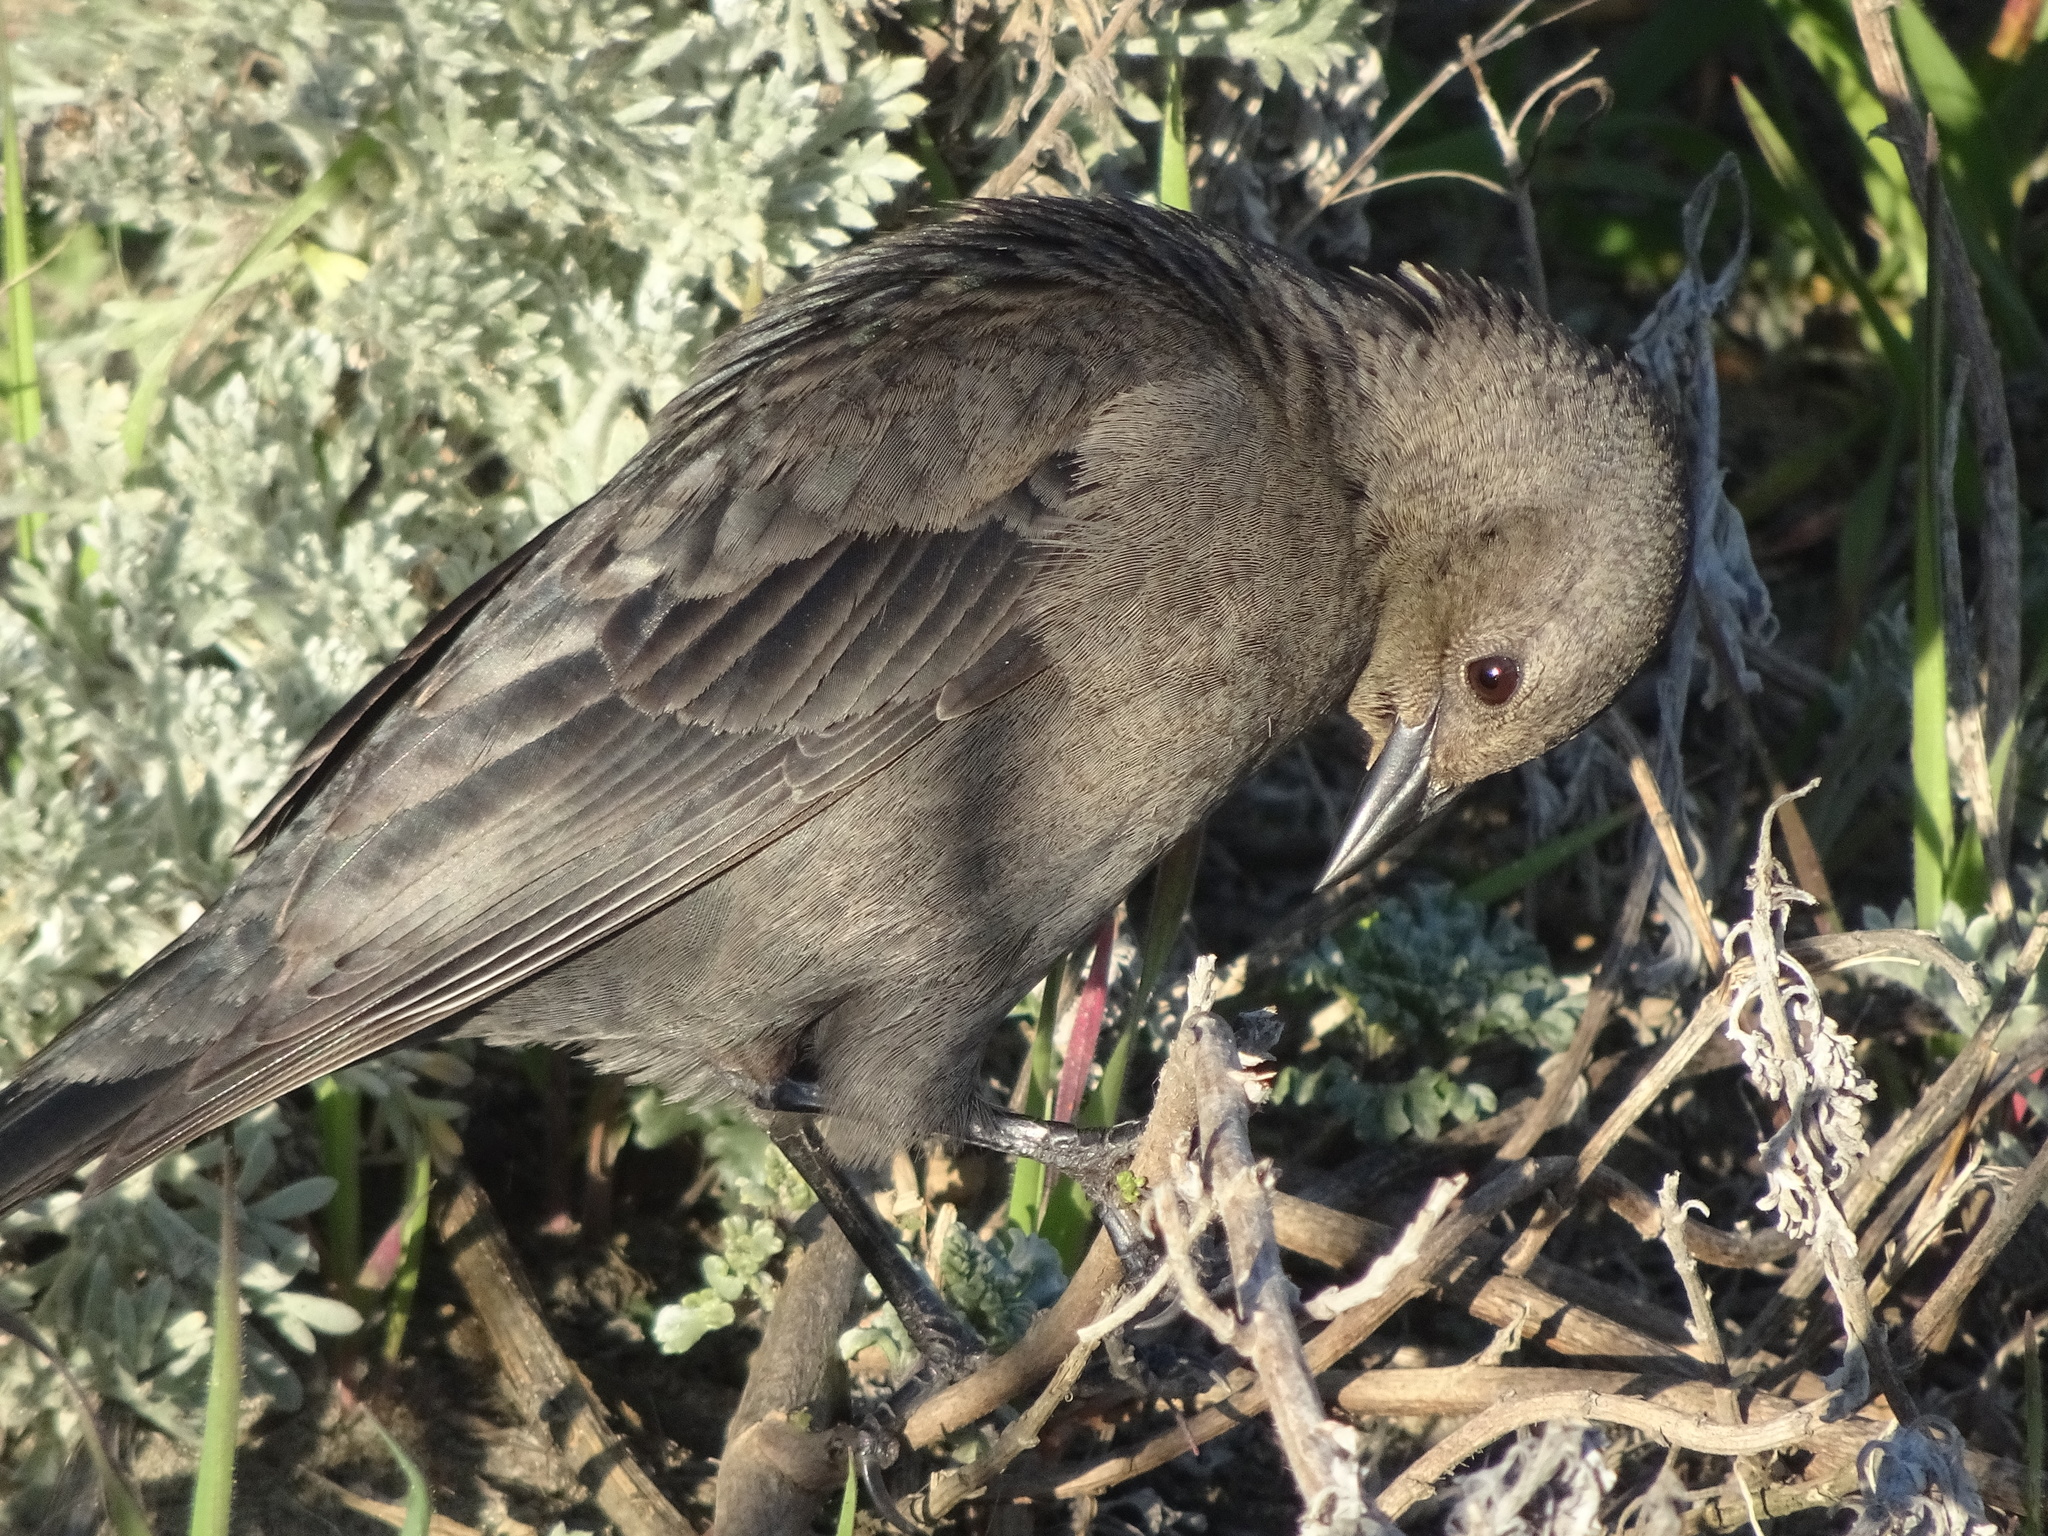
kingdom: Animalia
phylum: Chordata
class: Aves
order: Passeriformes
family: Icteridae
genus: Euphagus
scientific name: Euphagus cyanocephalus
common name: Brewer's blackbird
